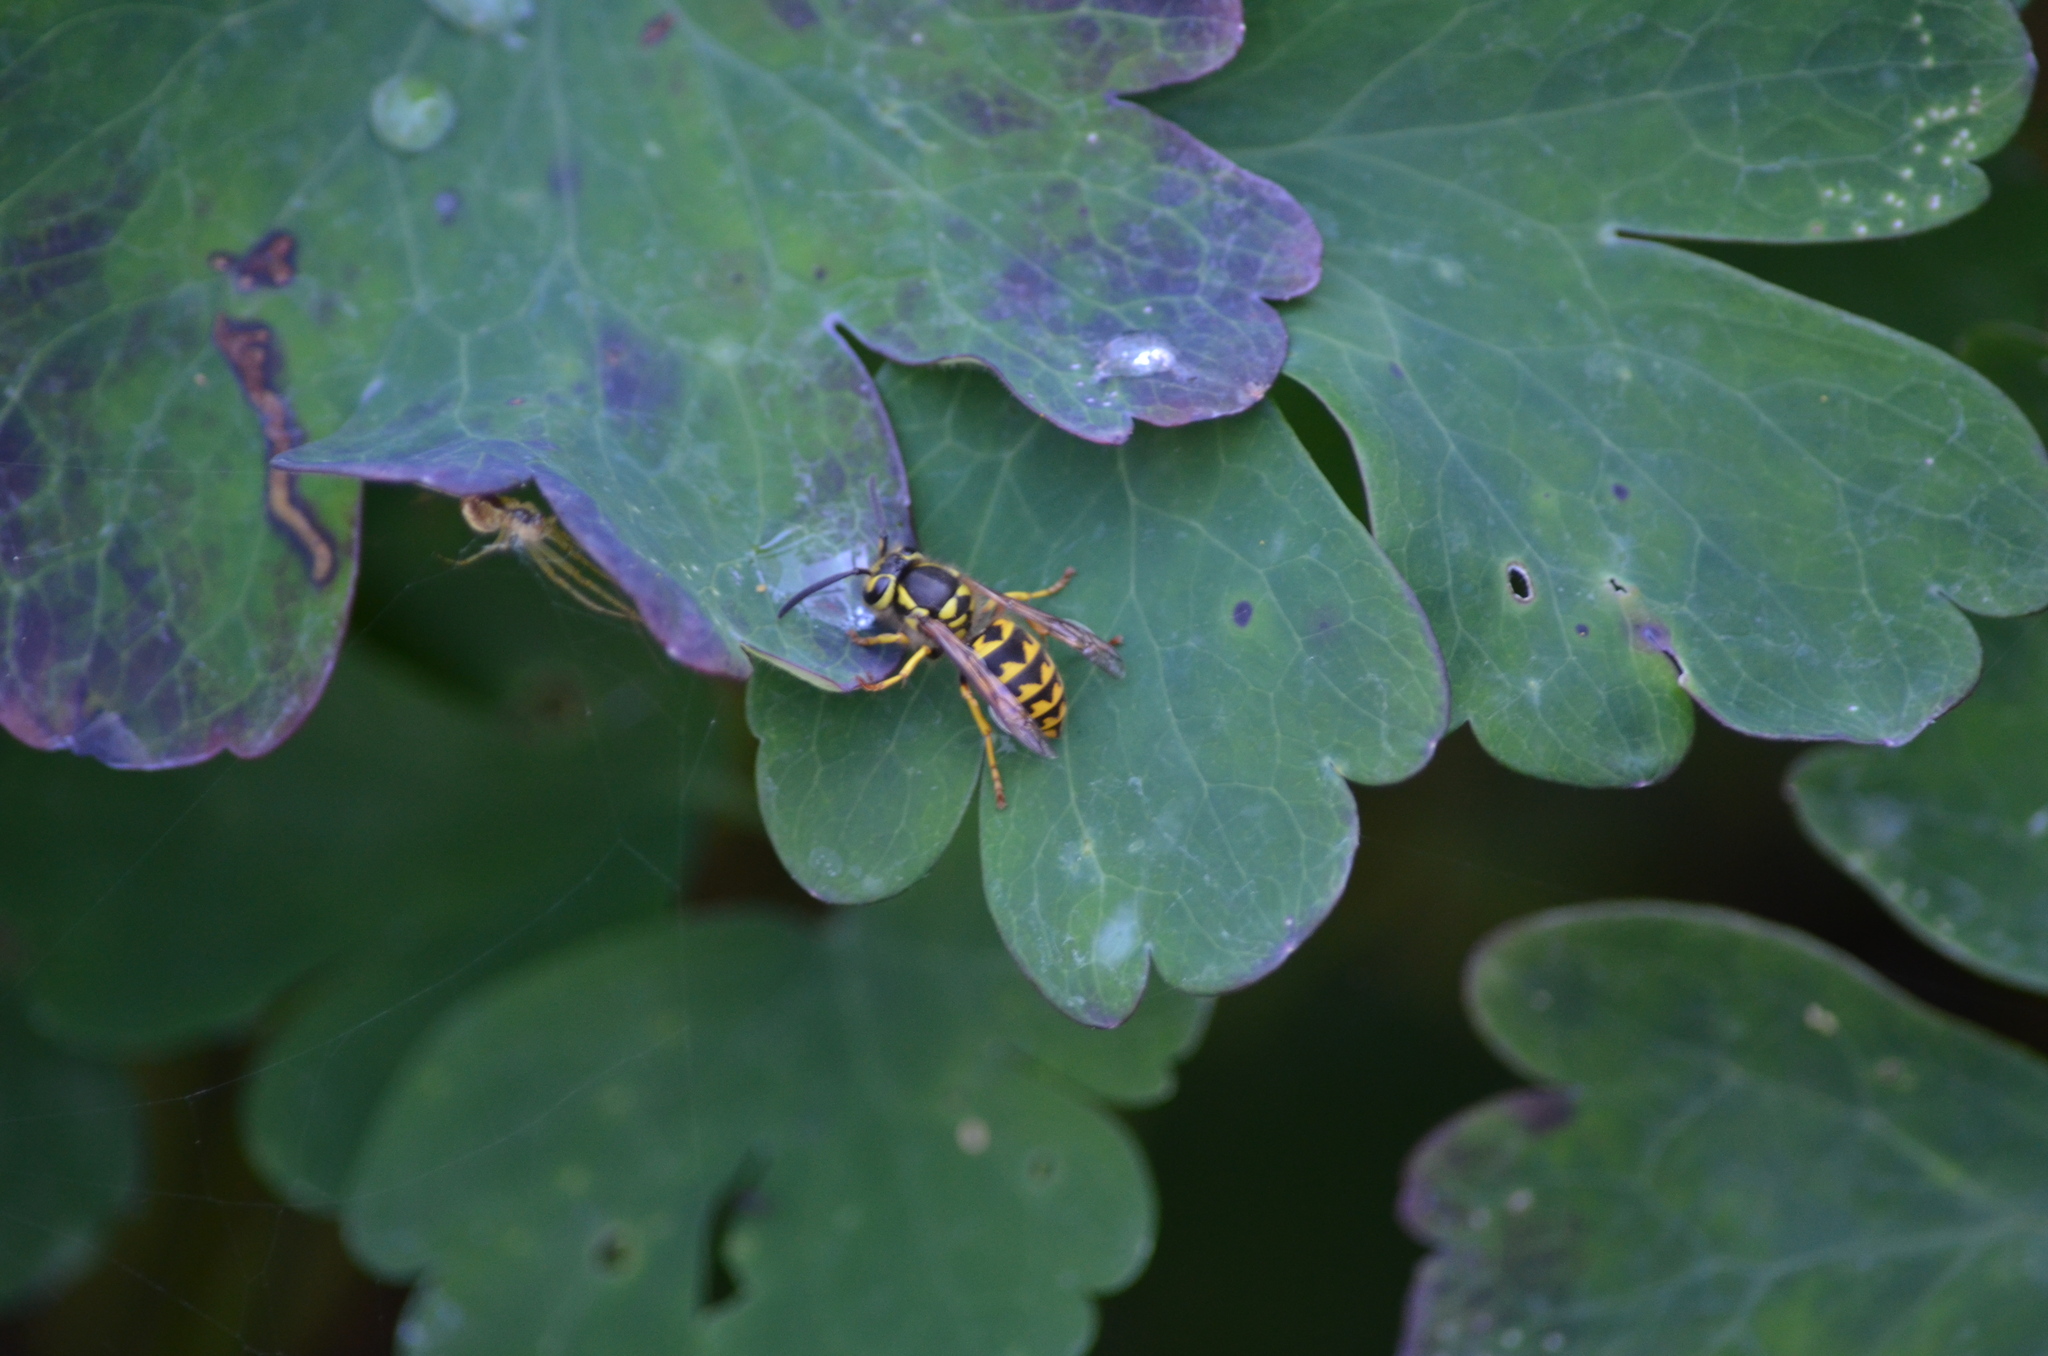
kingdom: Animalia
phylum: Arthropoda
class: Insecta
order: Hymenoptera
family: Vespidae
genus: Vespula
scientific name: Vespula pensylvanica
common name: Western yellowjacket
